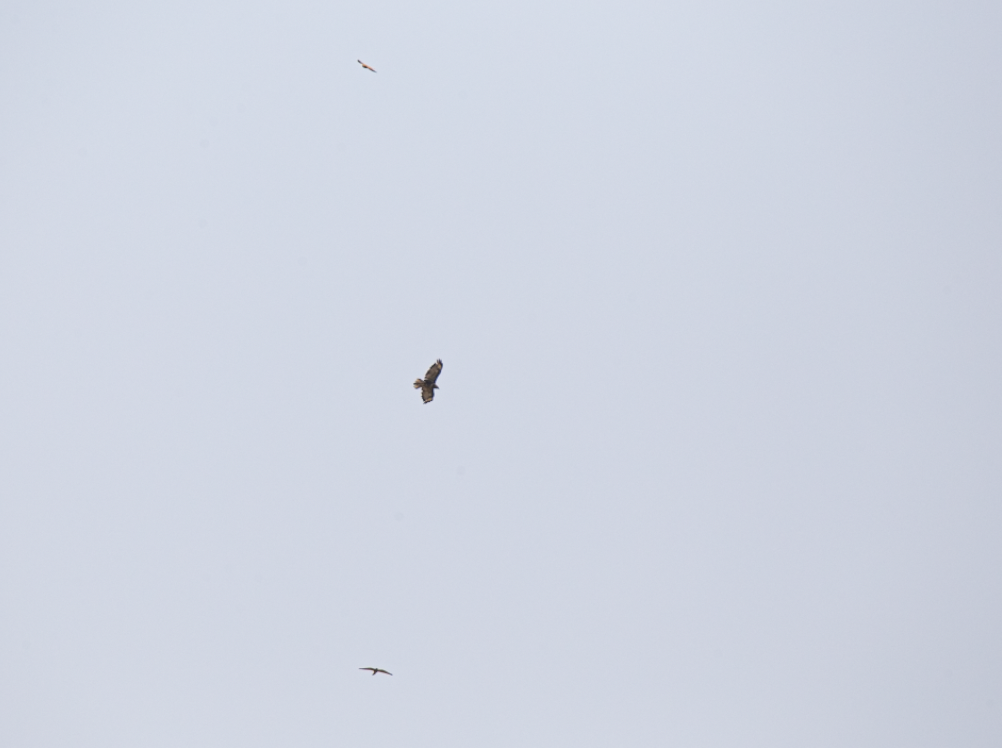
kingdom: Animalia
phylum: Chordata
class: Aves
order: Accipitriformes
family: Accipitridae
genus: Buteo
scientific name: Buteo buteo
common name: Common buzzard
